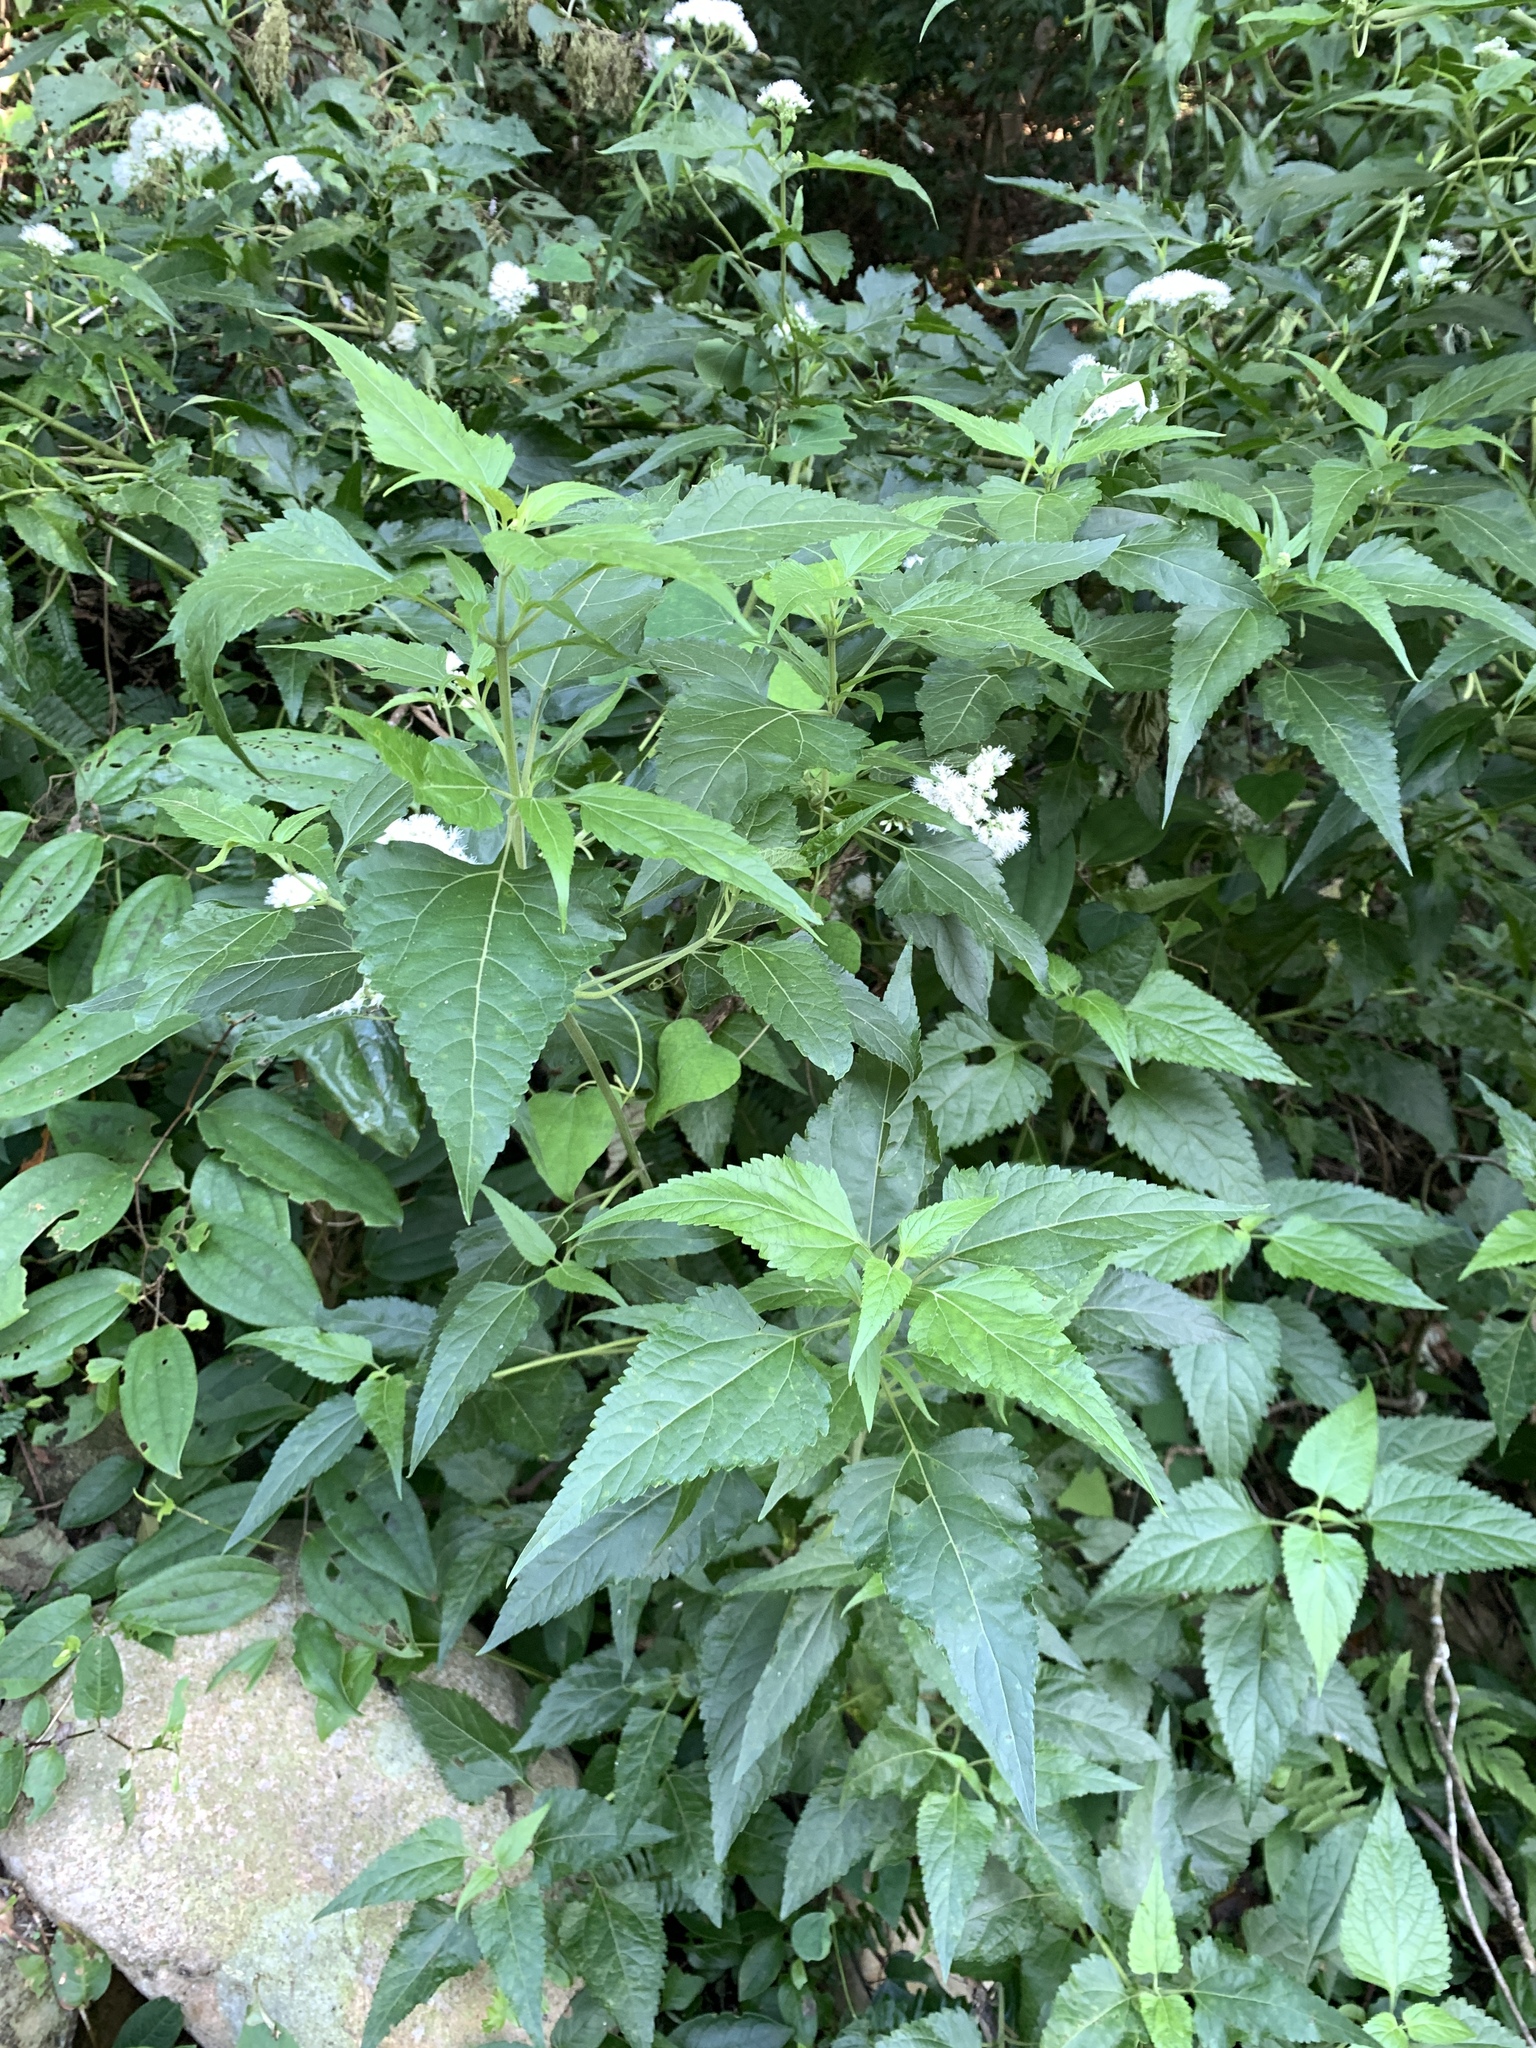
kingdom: Plantae
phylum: Tracheophyta
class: Magnoliopsida
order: Asterales
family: Asteraceae
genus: Chromolaena
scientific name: Chromolaena odorata
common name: Siamweed
